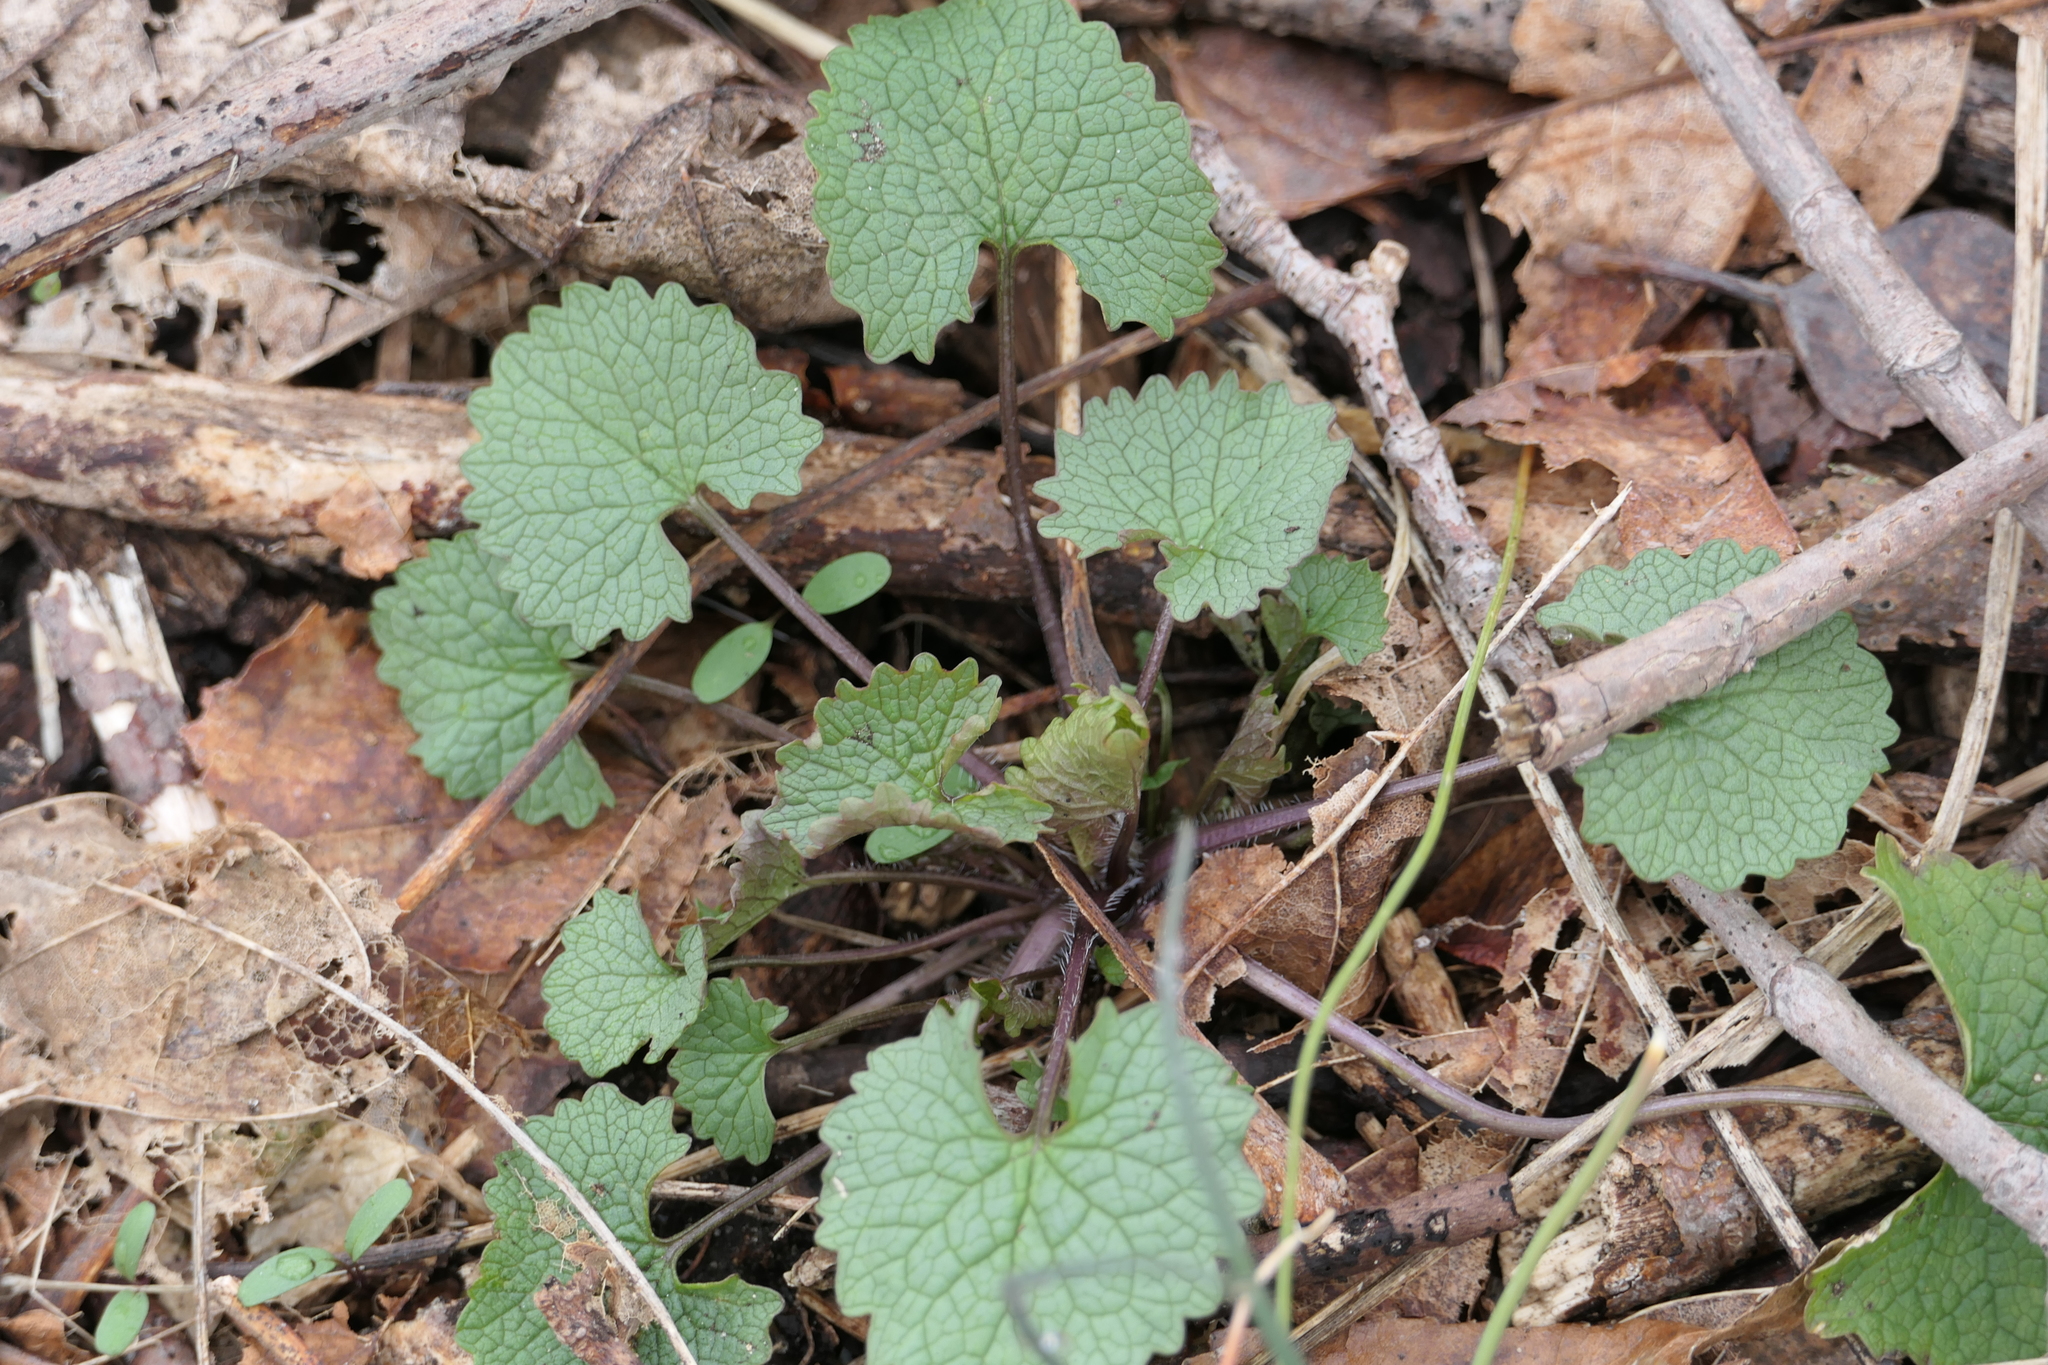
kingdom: Plantae
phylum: Tracheophyta
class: Magnoliopsida
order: Brassicales
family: Brassicaceae
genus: Alliaria
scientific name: Alliaria petiolata
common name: Garlic mustard
